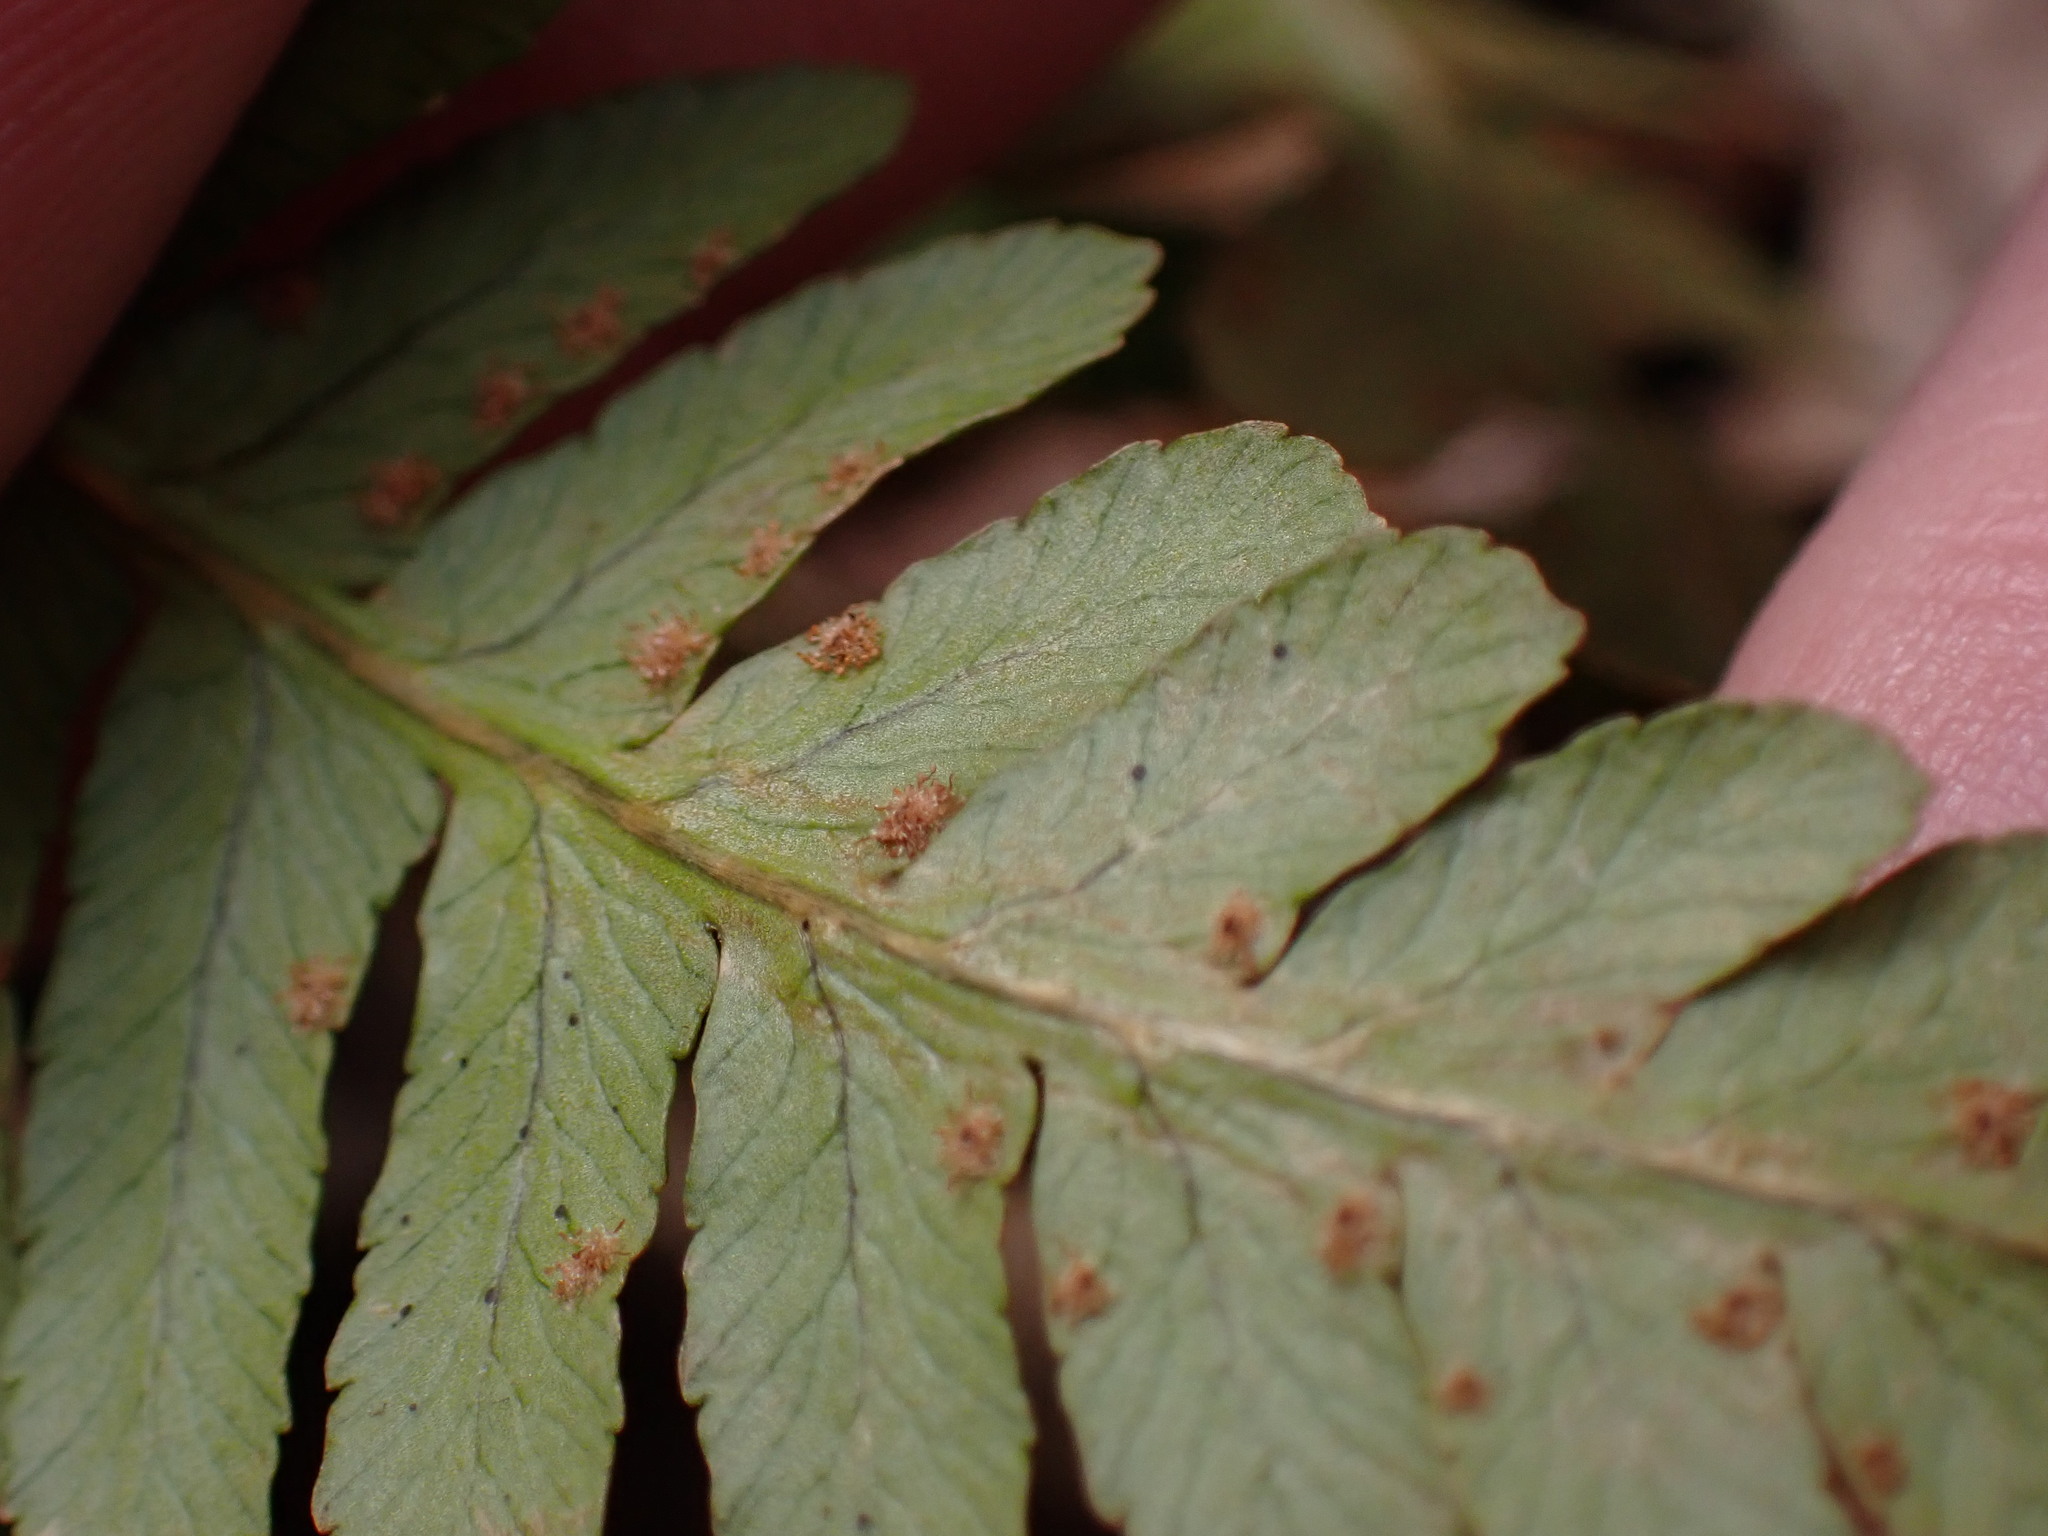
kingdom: Plantae
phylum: Tracheophyta
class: Polypodiopsida
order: Polypodiales
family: Dryopteridaceae
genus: Dryopteris
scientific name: Dryopteris marginalis
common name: Marginal wood fern
